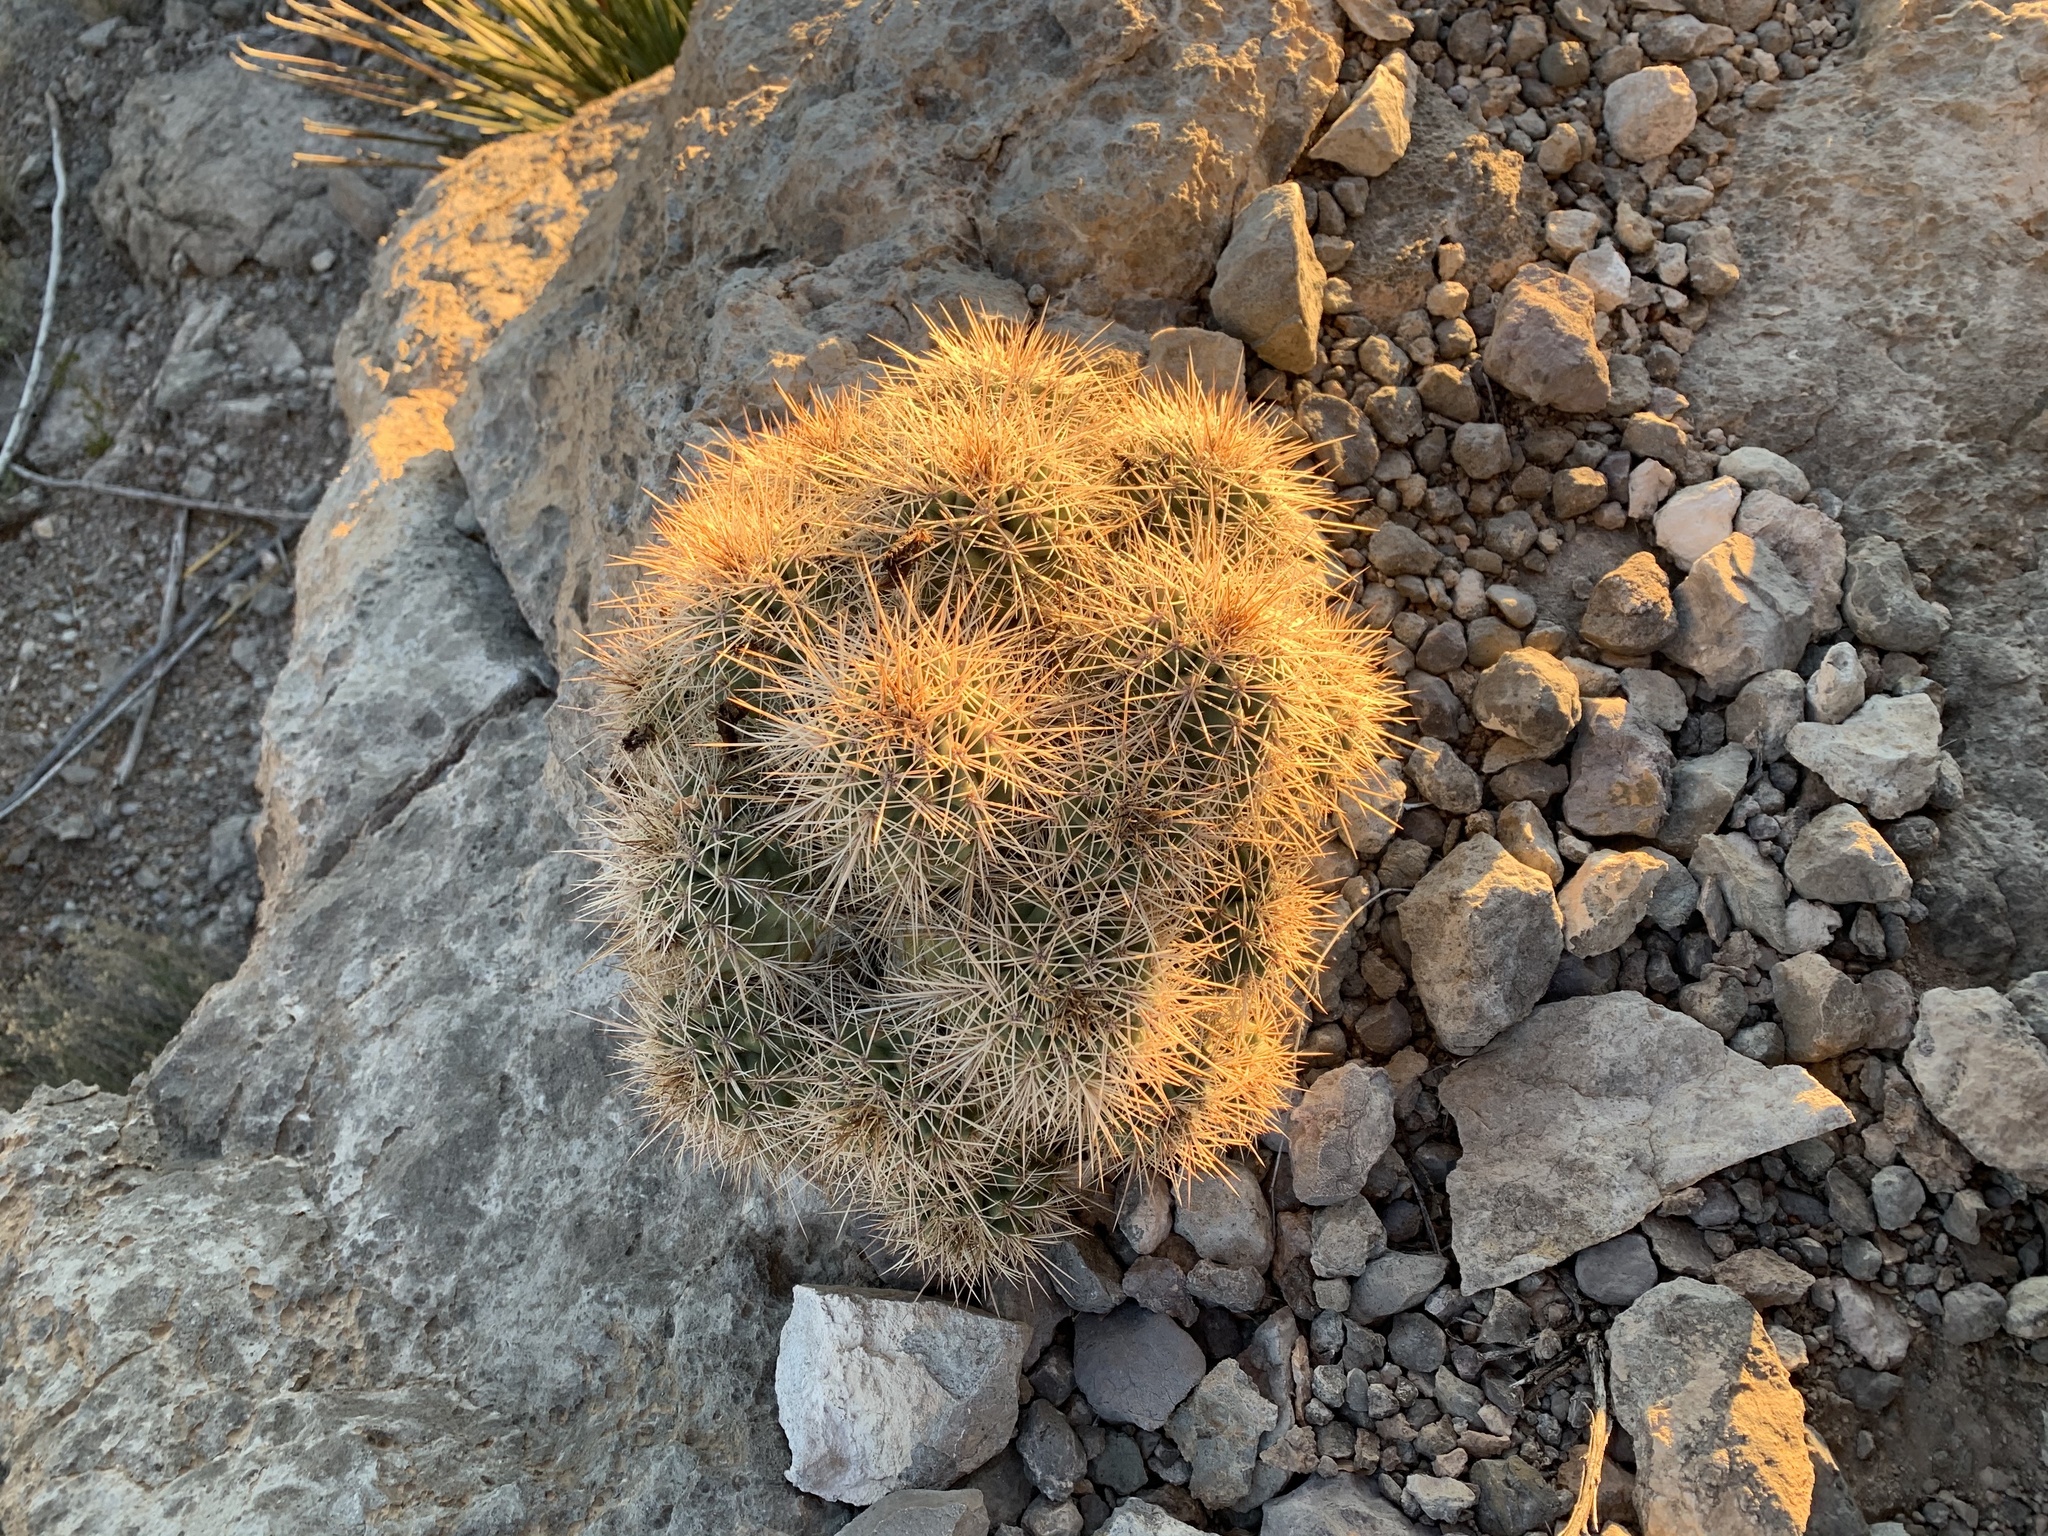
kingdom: Plantae
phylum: Tracheophyta
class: Magnoliopsida
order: Caryophyllales
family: Cactaceae
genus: Echinocereus
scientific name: Echinocereus coccineus
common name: Scarlet hedgehog cactus
